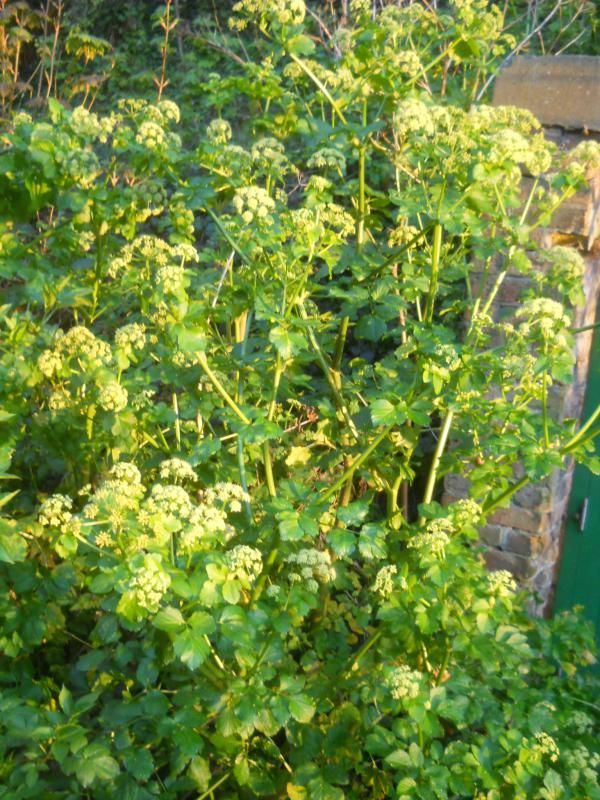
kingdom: Plantae
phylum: Tracheophyta
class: Magnoliopsida
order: Apiales
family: Apiaceae
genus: Smyrnium
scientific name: Smyrnium olusatrum
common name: Alexanders
